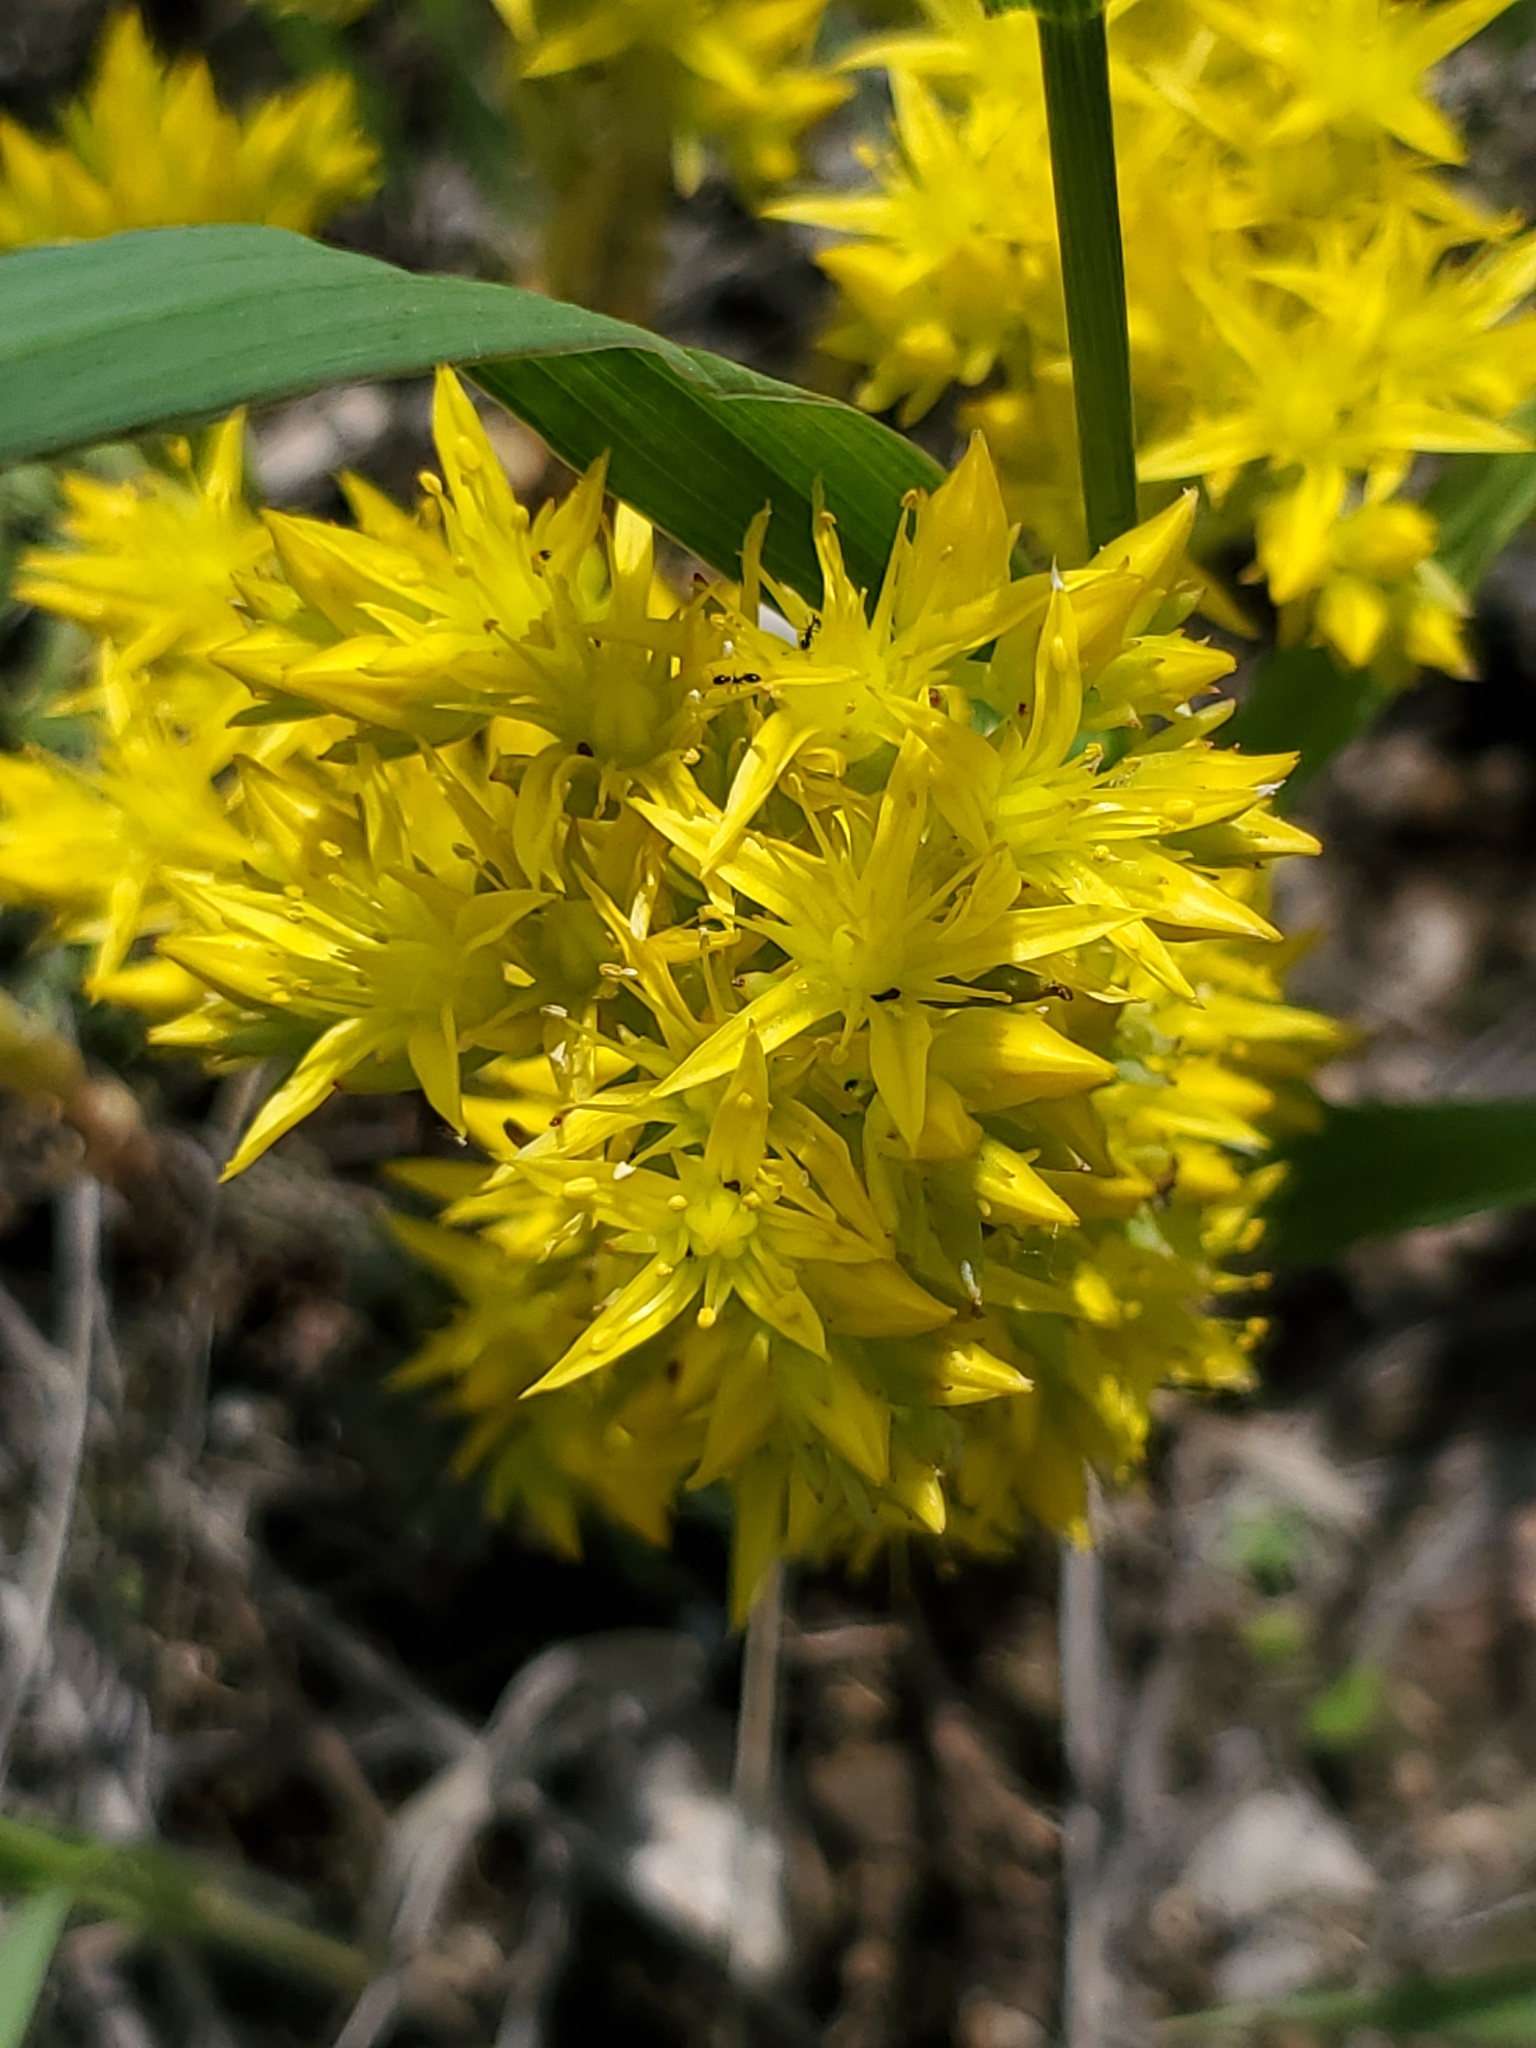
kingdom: Plantae
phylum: Tracheophyta
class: Magnoliopsida
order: Saxifragales
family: Crassulaceae
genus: Sedum
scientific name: Sedum lanceolatum
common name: Common stonecrop
